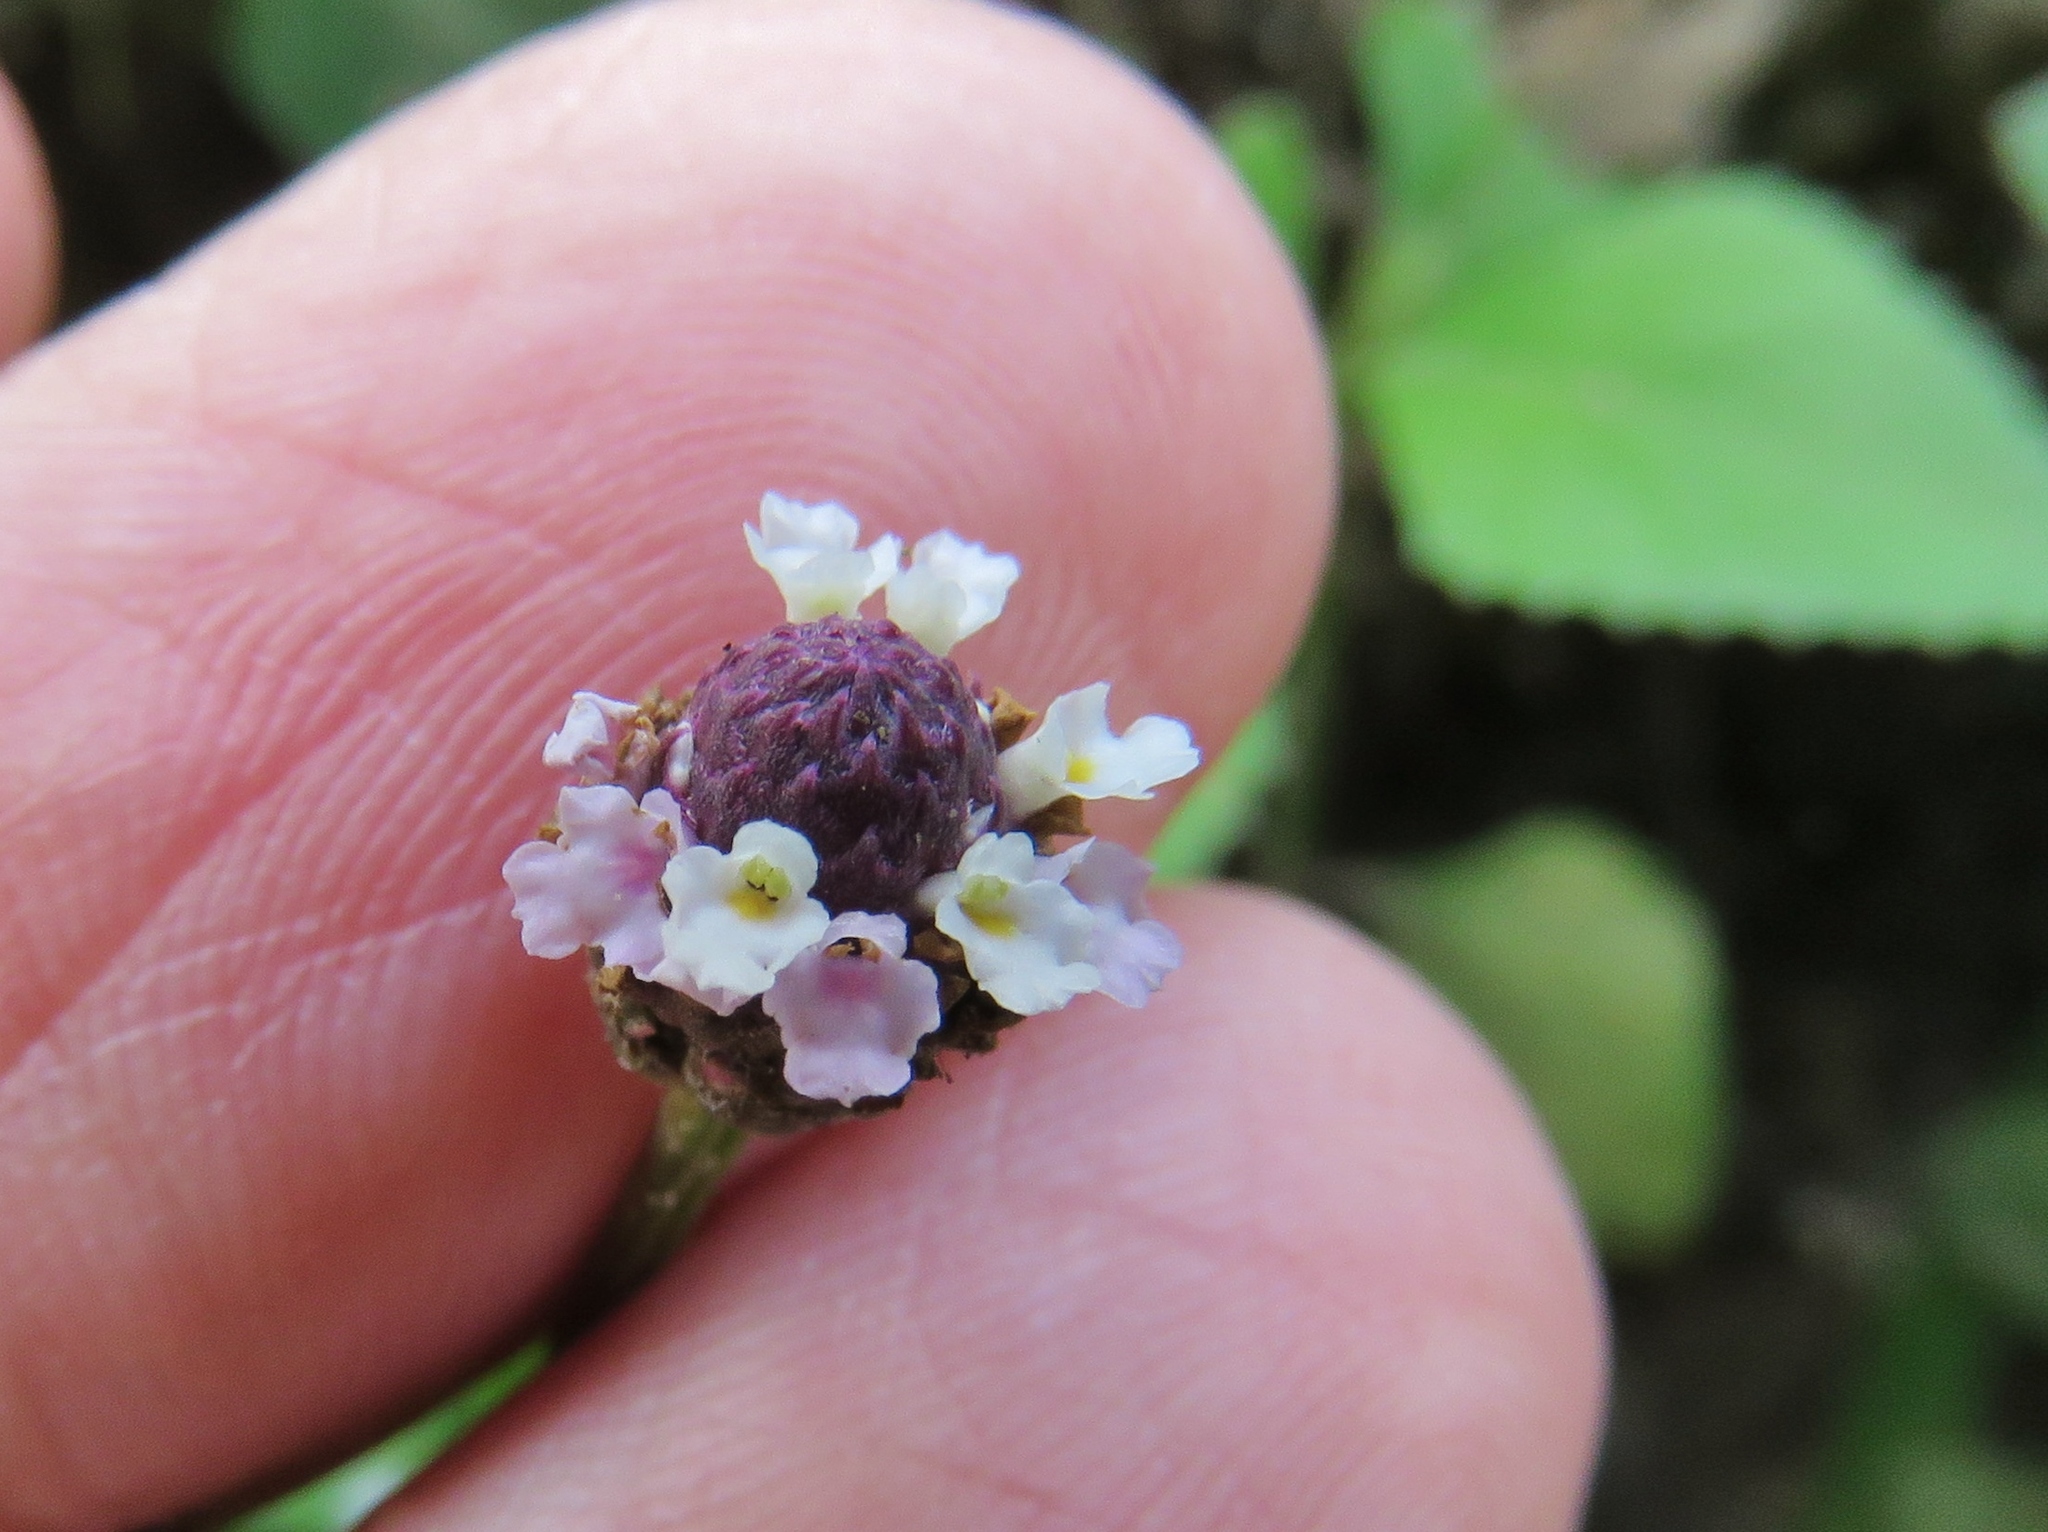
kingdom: Plantae
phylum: Tracheophyta
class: Magnoliopsida
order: Lamiales
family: Verbenaceae
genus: Phyla
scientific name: Phyla nodiflora
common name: Frogfruit
